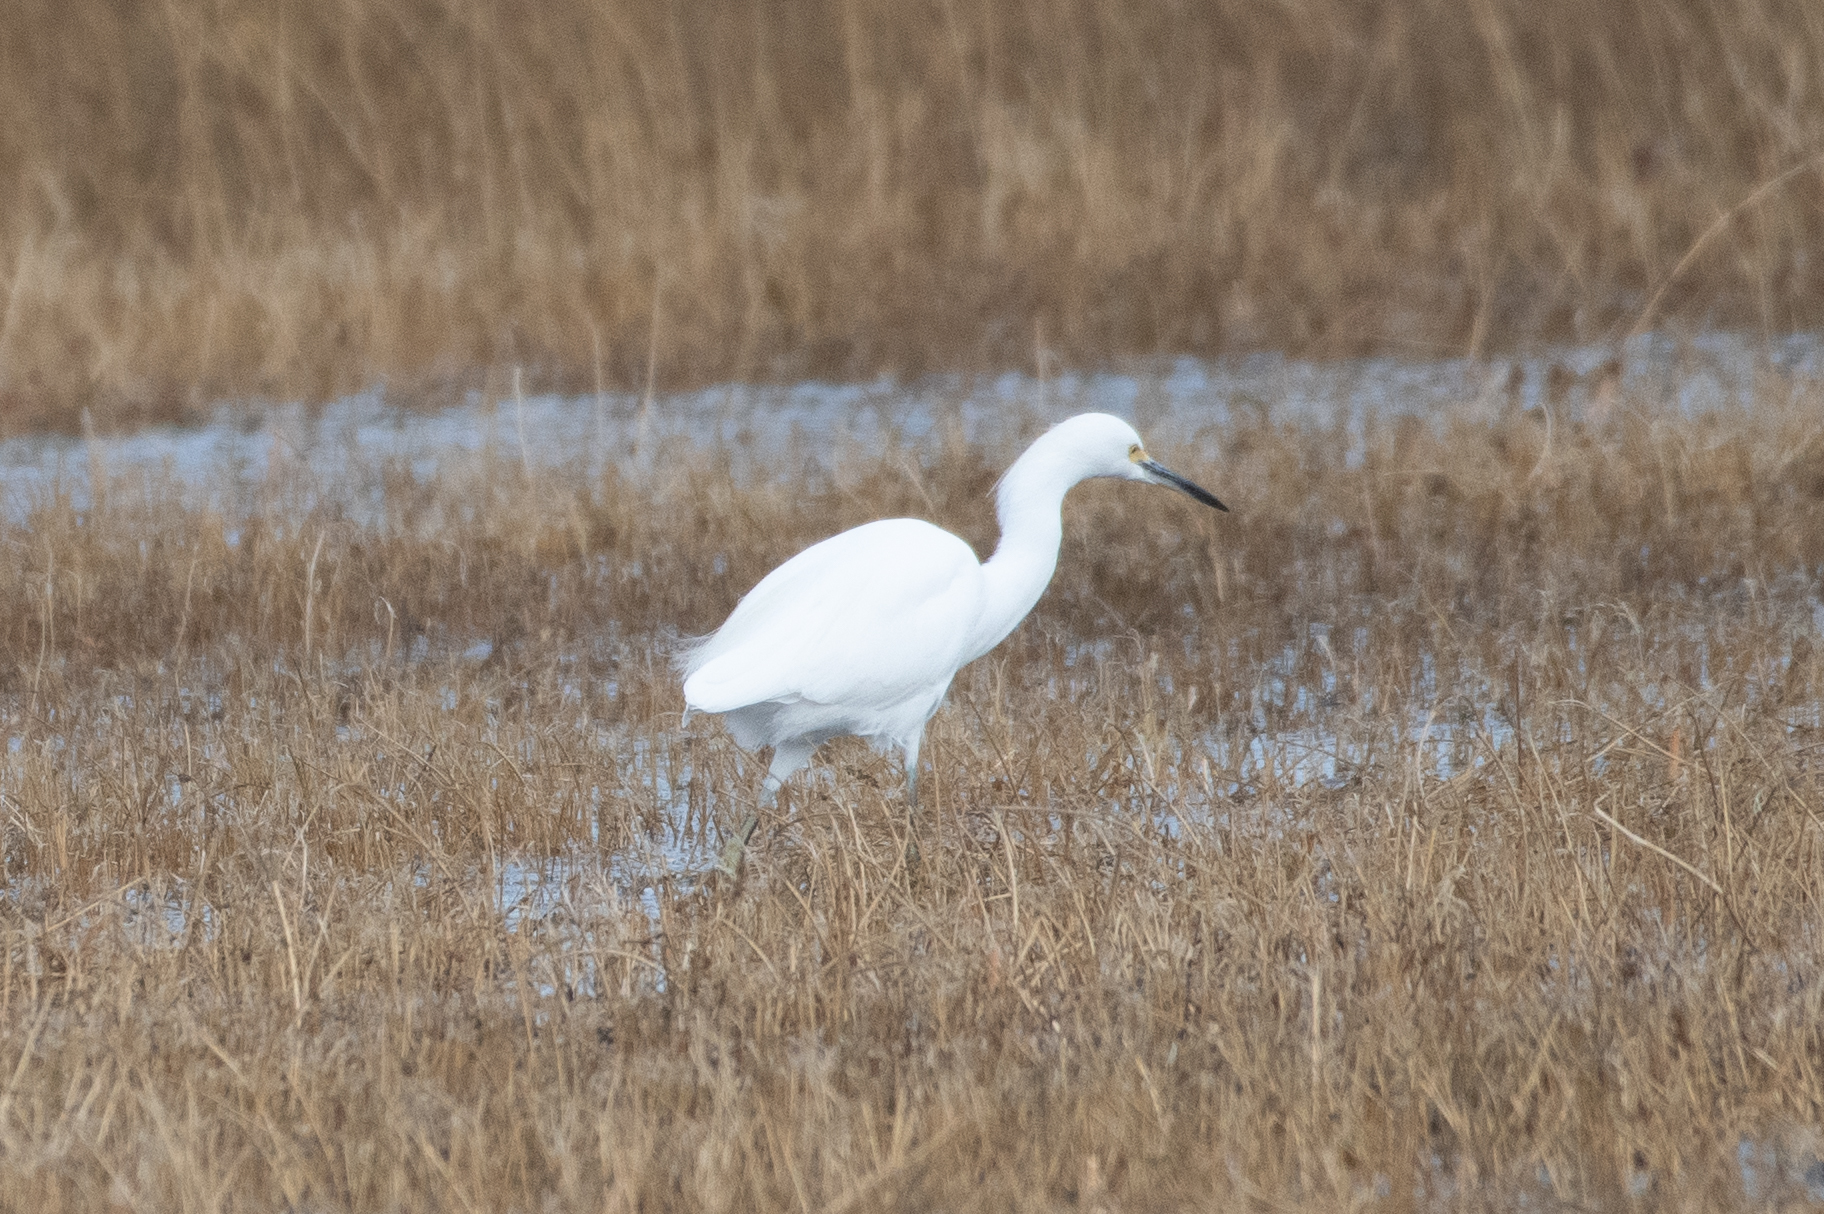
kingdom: Animalia
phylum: Chordata
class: Aves
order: Pelecaniformes
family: Ardeidae
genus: Egretta
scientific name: Egretta thula
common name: Snowy egret
